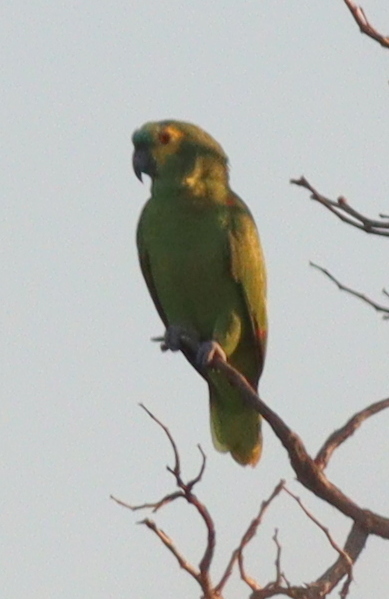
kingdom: Animalia
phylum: Chordata
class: Aves
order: Psittaciformes
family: Psittacidae
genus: Amazona
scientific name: Amazona aestiva
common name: Turquoise-fronted amazon
